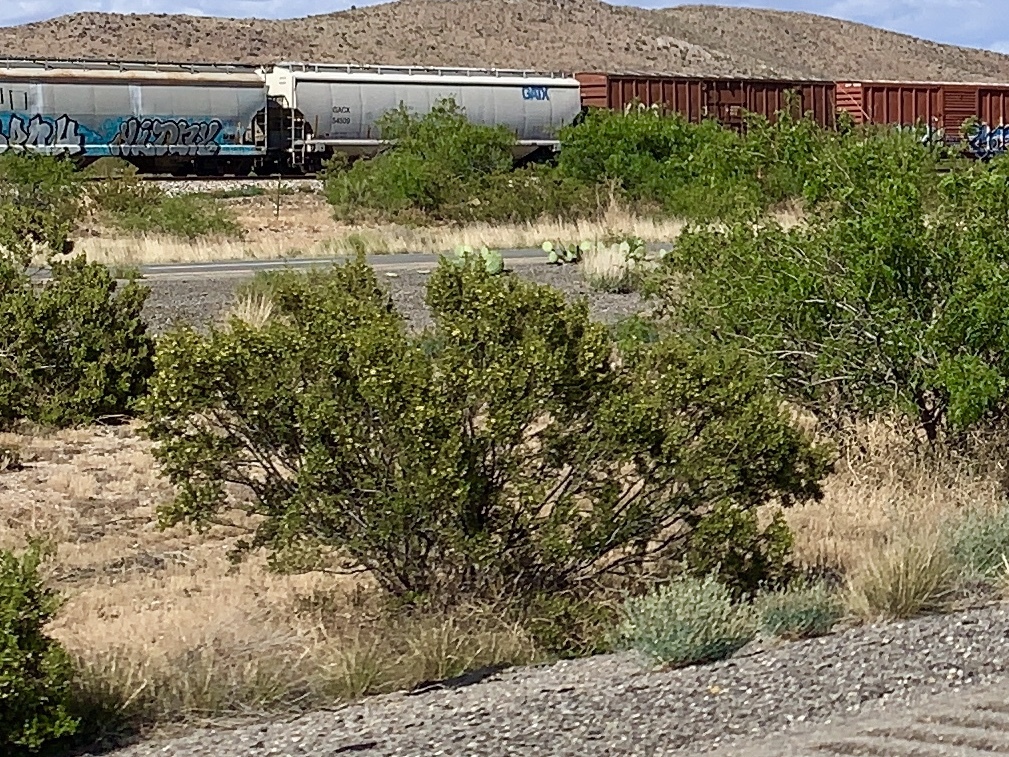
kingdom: Plantae
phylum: Tracheophyta
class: Magnoliopsida
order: Zygophyllales
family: Zygophyllaceae
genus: Larrea
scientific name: Larrea tridentata
